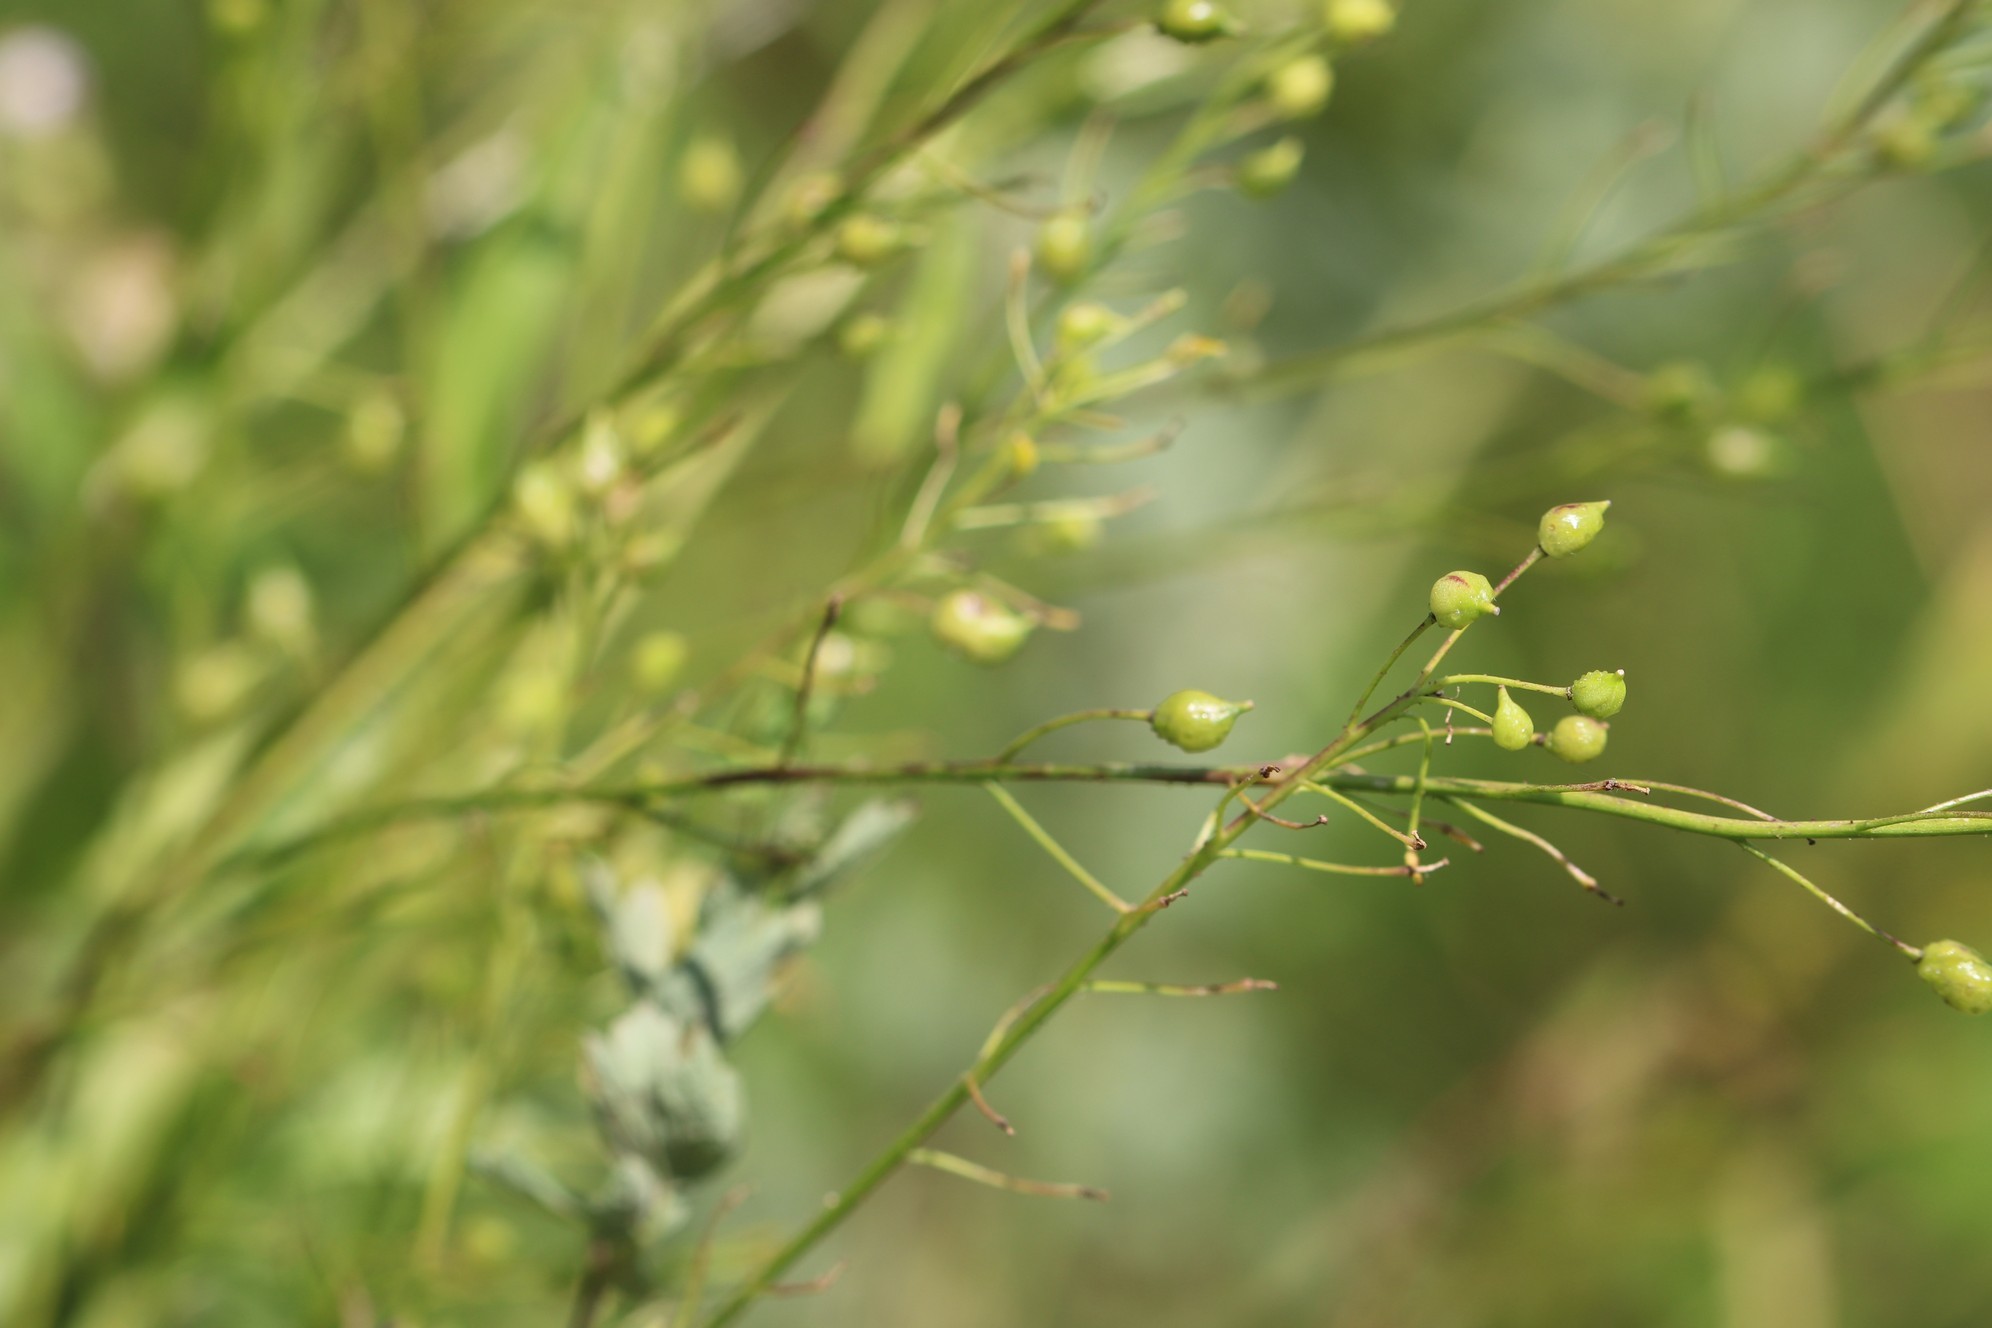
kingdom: Plantae
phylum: Tracheophyta
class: Magnoliopsida
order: Brassicales
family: Brassicaceae
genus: Bunias
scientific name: Bunias orientalis
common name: Warty-cabbage
